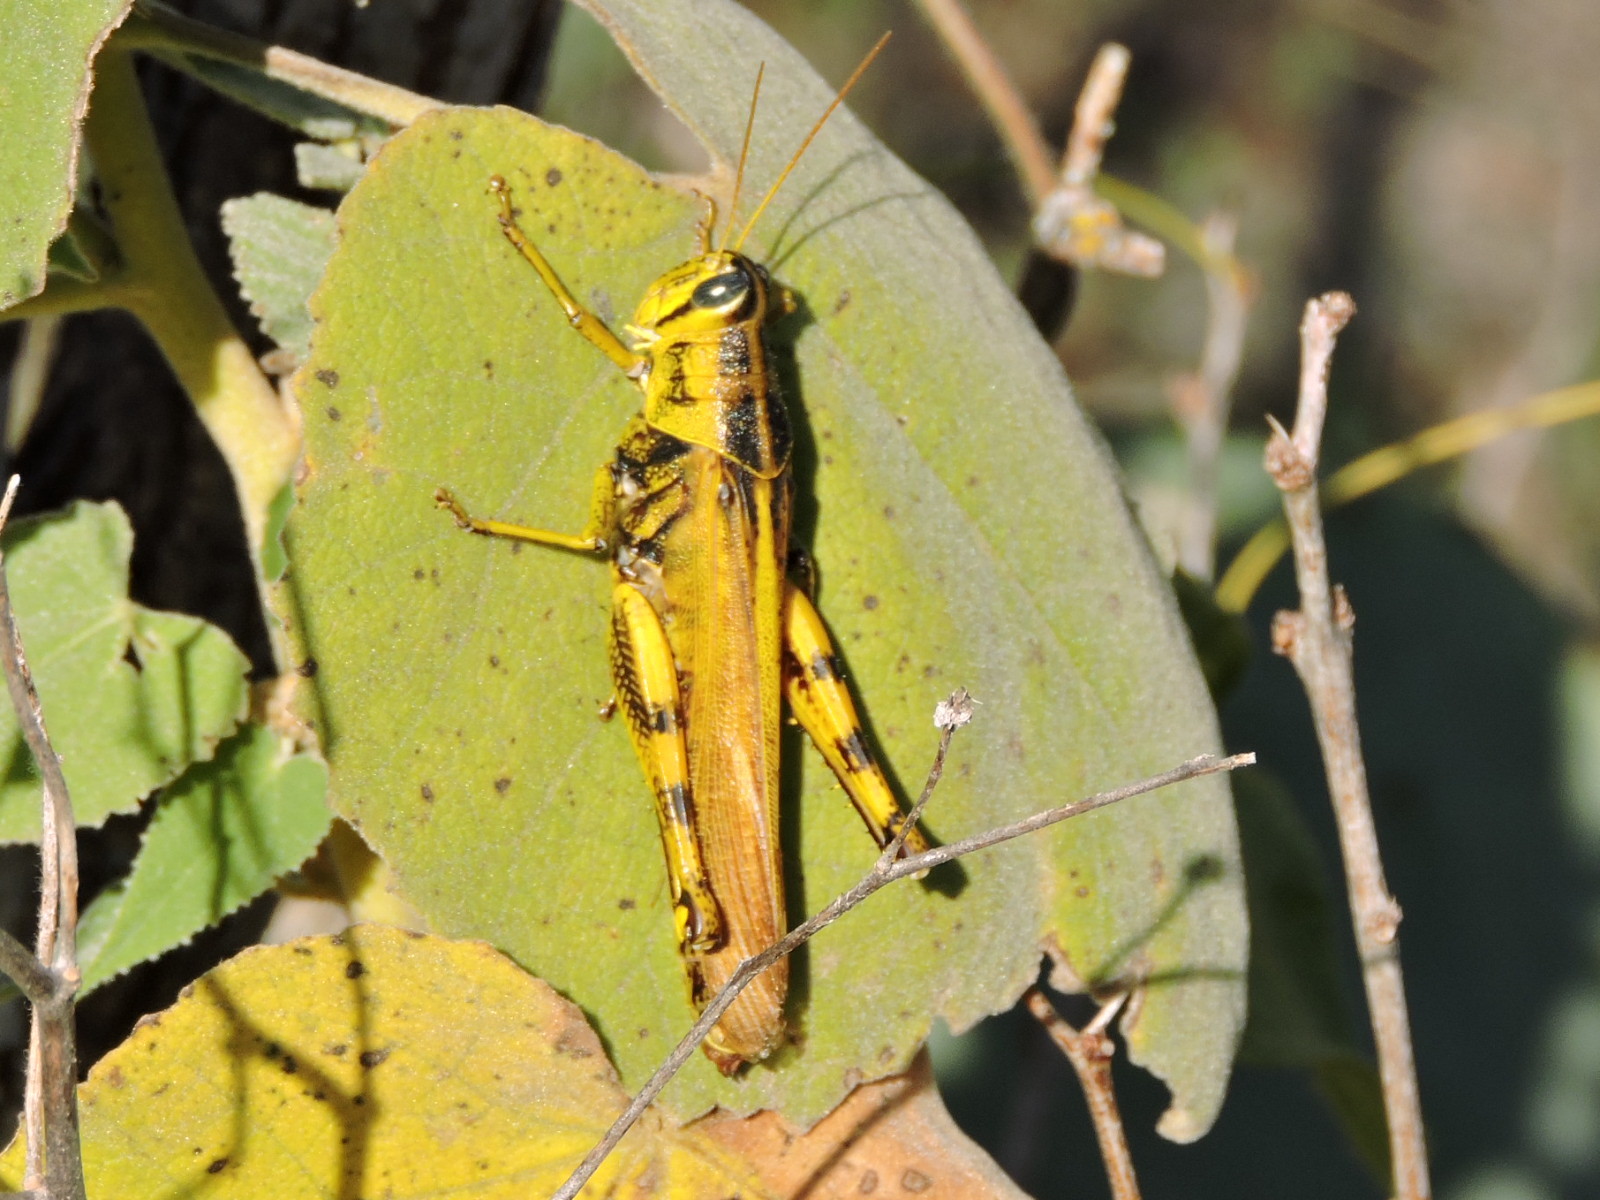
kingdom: Animalia
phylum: Arthropoda
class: Insecta
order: Orthoptera
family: Acrididae
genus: Schistocerca
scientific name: Schistocerca lineata
